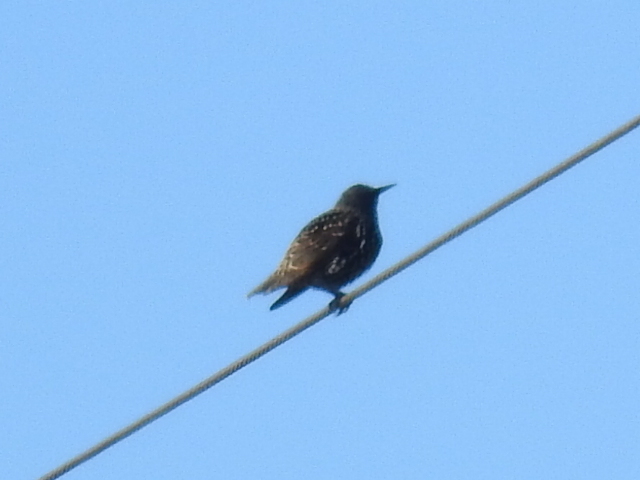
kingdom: Animalia
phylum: Chordata
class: Aves
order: Passeriformes
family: Sturnidae
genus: Sturnus
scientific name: Sturnus vulgaris
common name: Common starling
